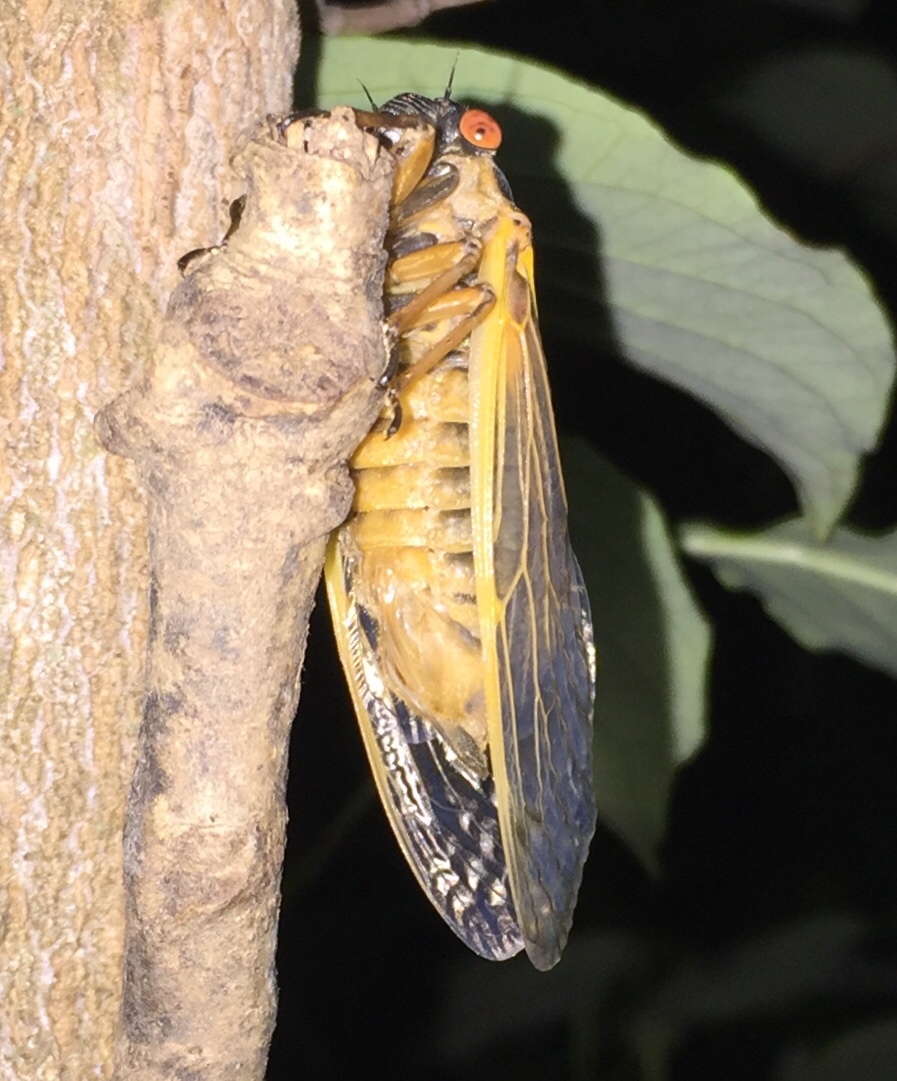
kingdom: Animalia
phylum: Arthropoda
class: Insecta
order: Hemiptera
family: Cicadidae
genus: Magicicada
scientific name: Magicicada tredecim
